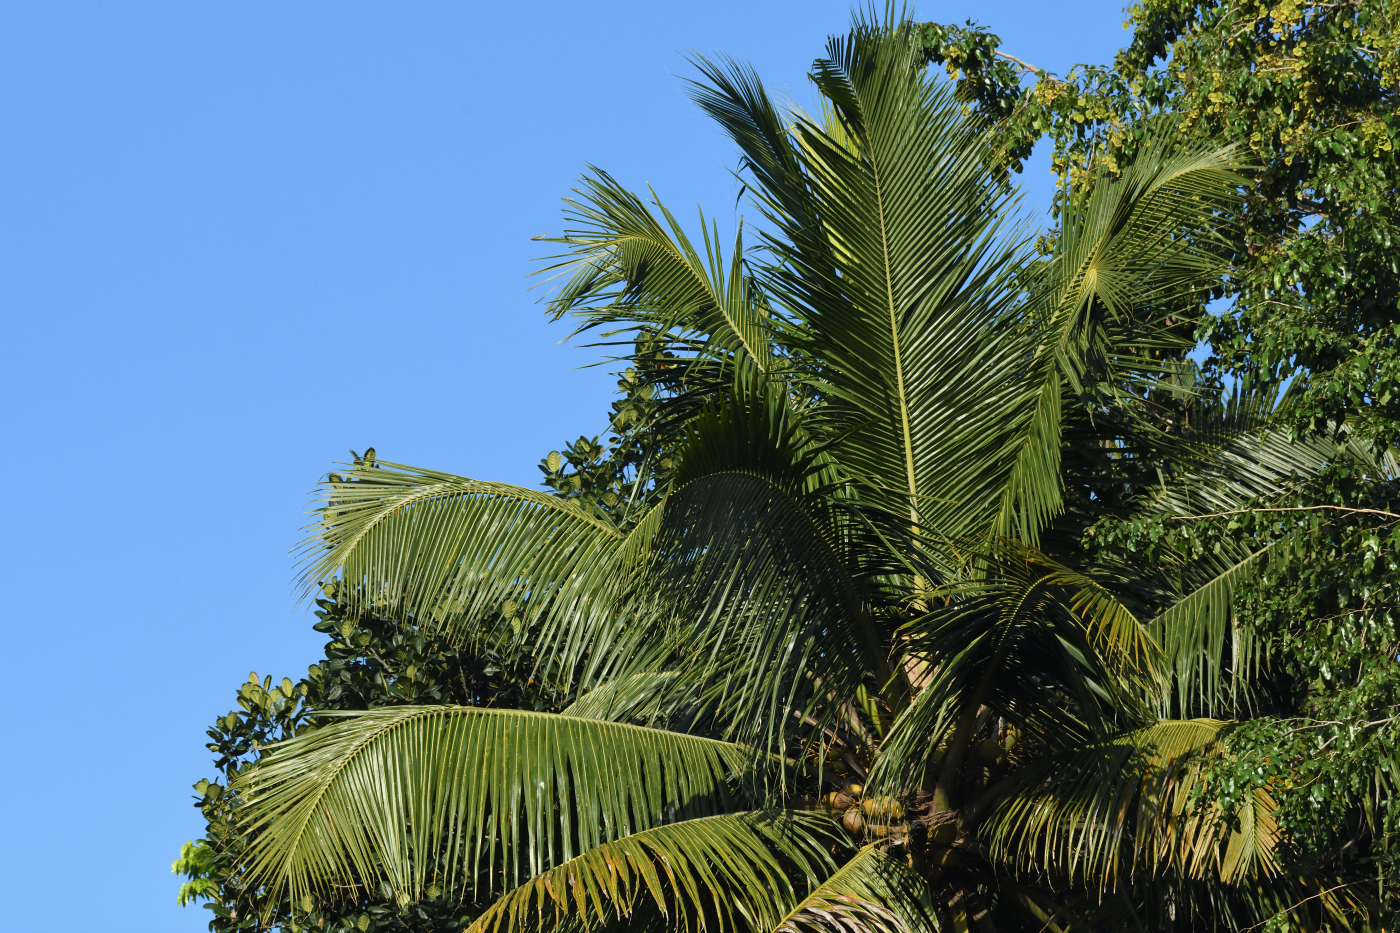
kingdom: Plantae
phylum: Tracheophyta
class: Liliopsida
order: Arecales
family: Arecaceae
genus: Cocos
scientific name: Cocos nucifera
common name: Coconut palm
